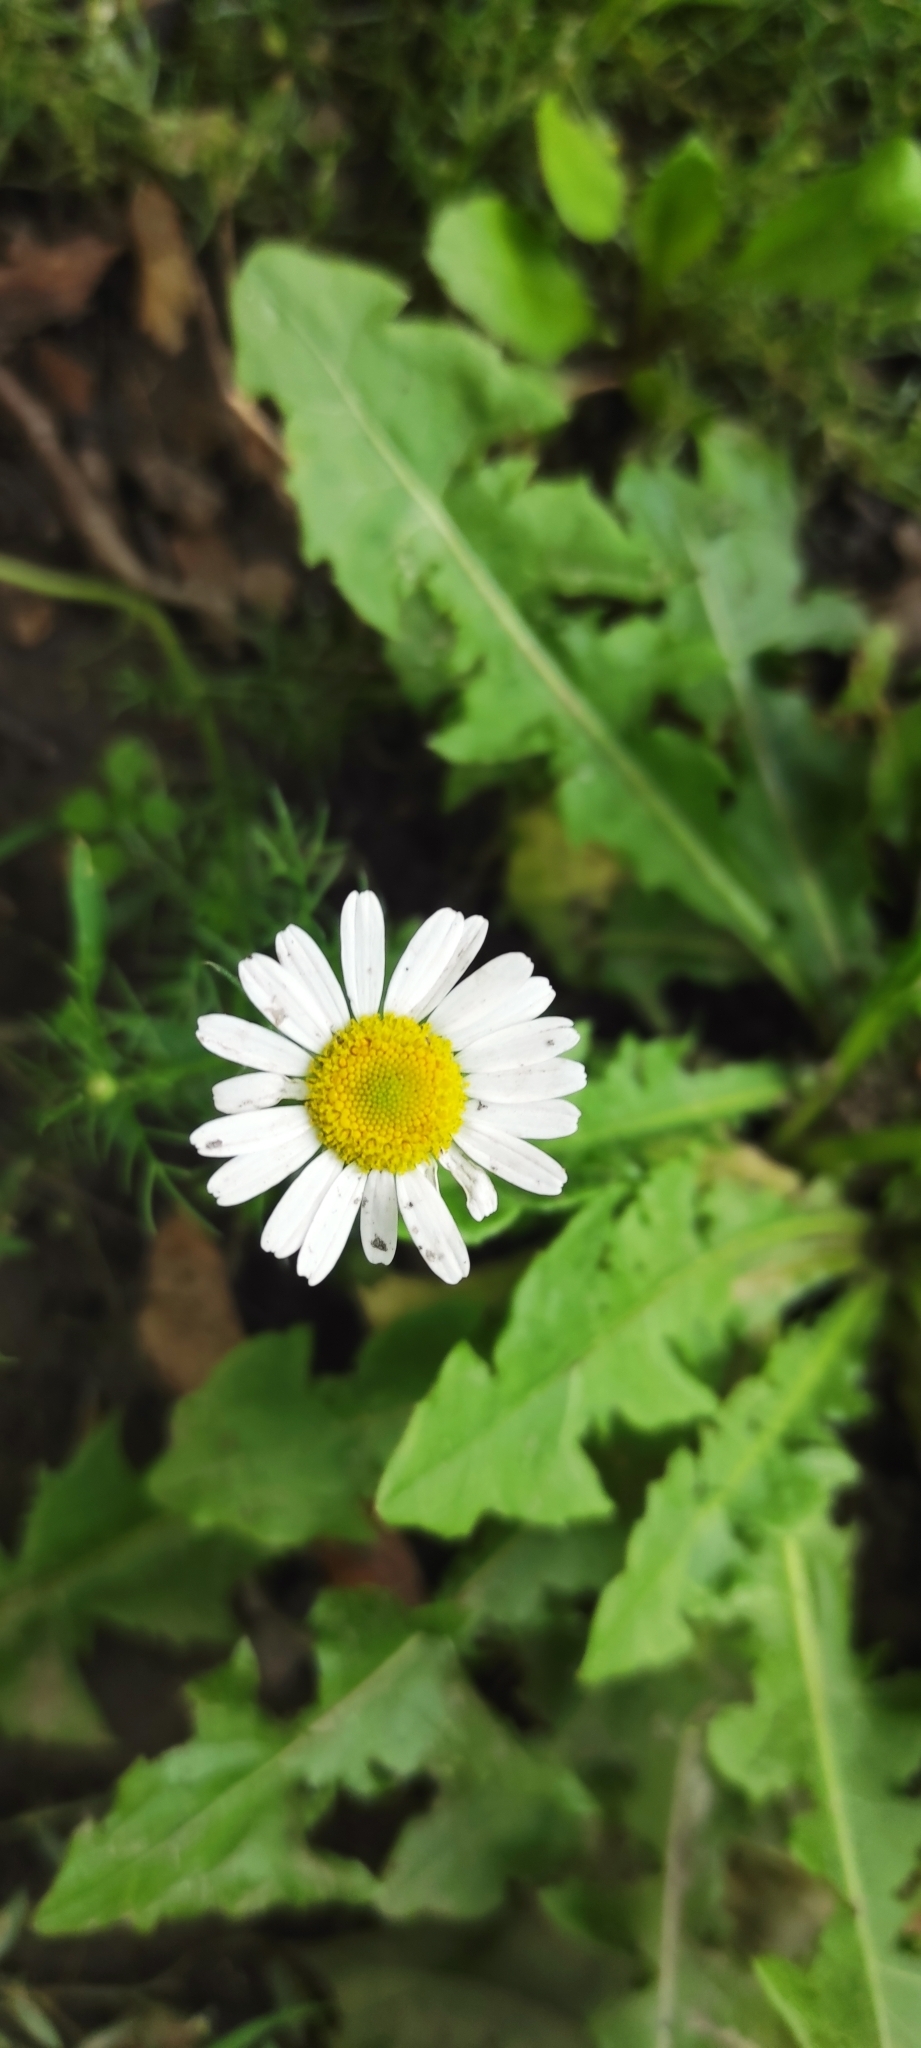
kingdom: Plantae
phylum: Tracheophyta
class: Magnoliopsida
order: Asterales
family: Asteraceae
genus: Tripleurospermum
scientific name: Tripleurospermum inodorum
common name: Scentless mayweed
